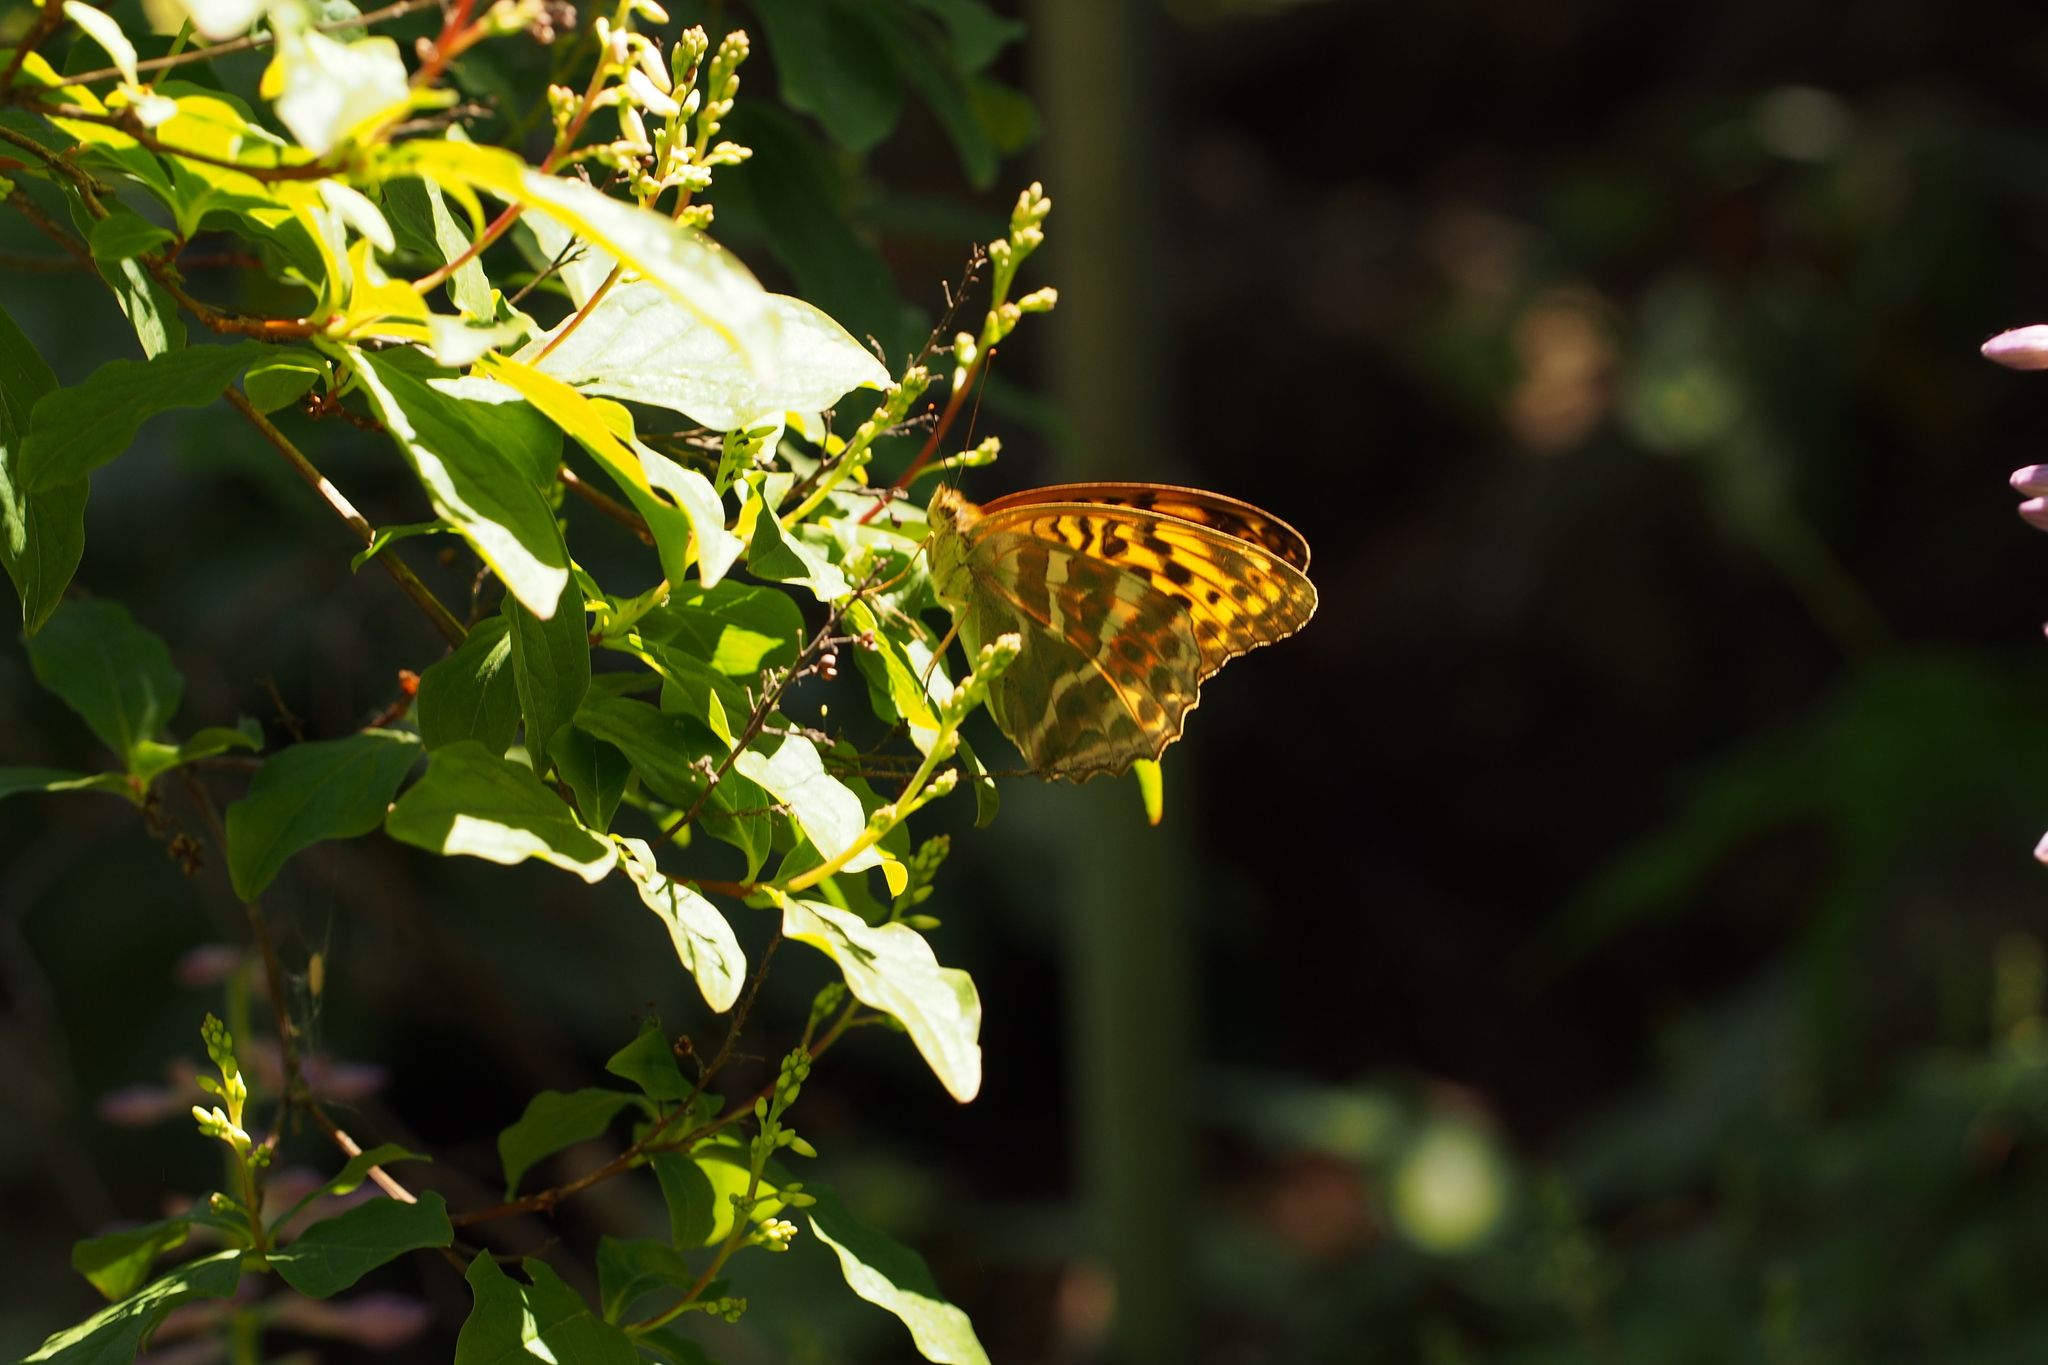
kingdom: Animalia
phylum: Arthropoda
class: Insecta
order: Lepidoptera
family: Nymphalidae
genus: Argynnis
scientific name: Argynnis paphia
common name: Silver-washed fritillary
